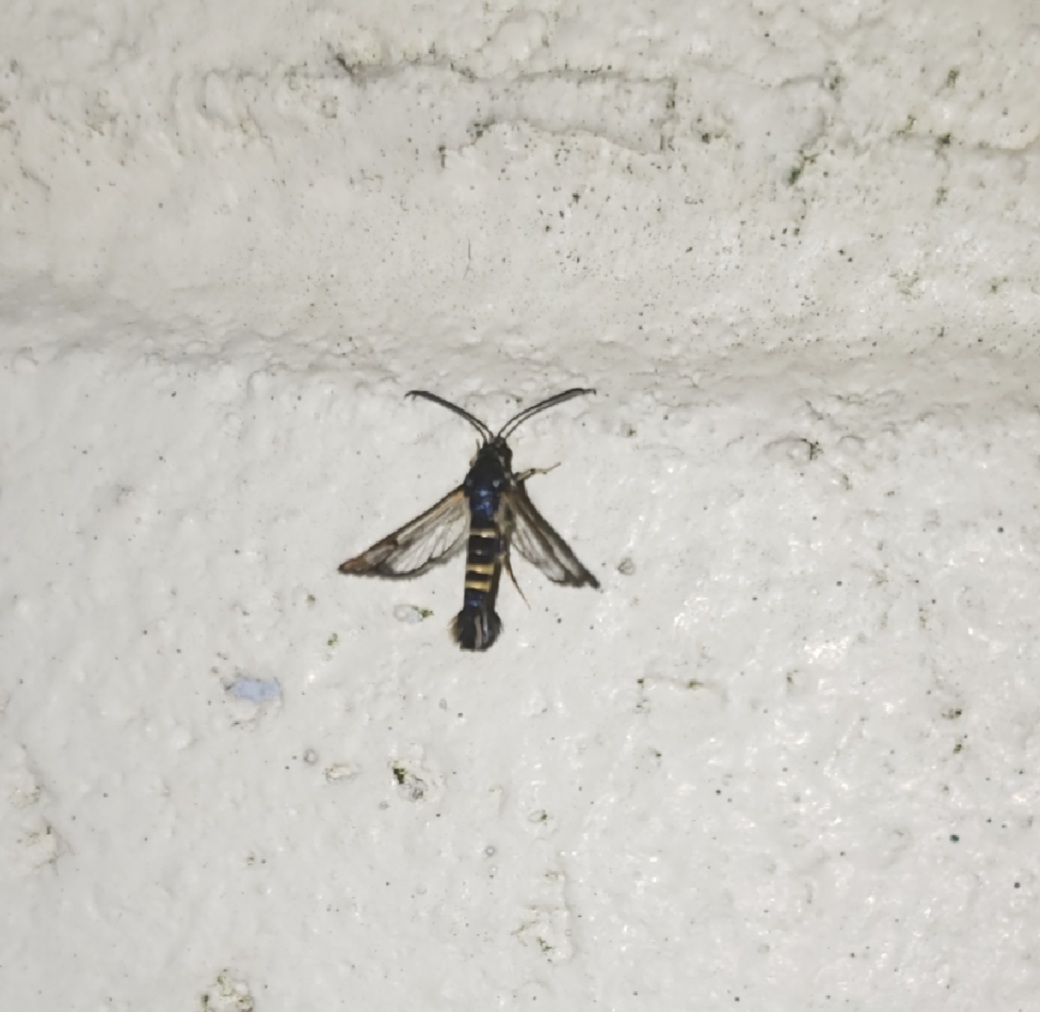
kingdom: Animalia
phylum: Arthropoda
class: Insecta
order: Lepidoptera
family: Sesiidae
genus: Synanthedon
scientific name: Synanthedon rhododendri
